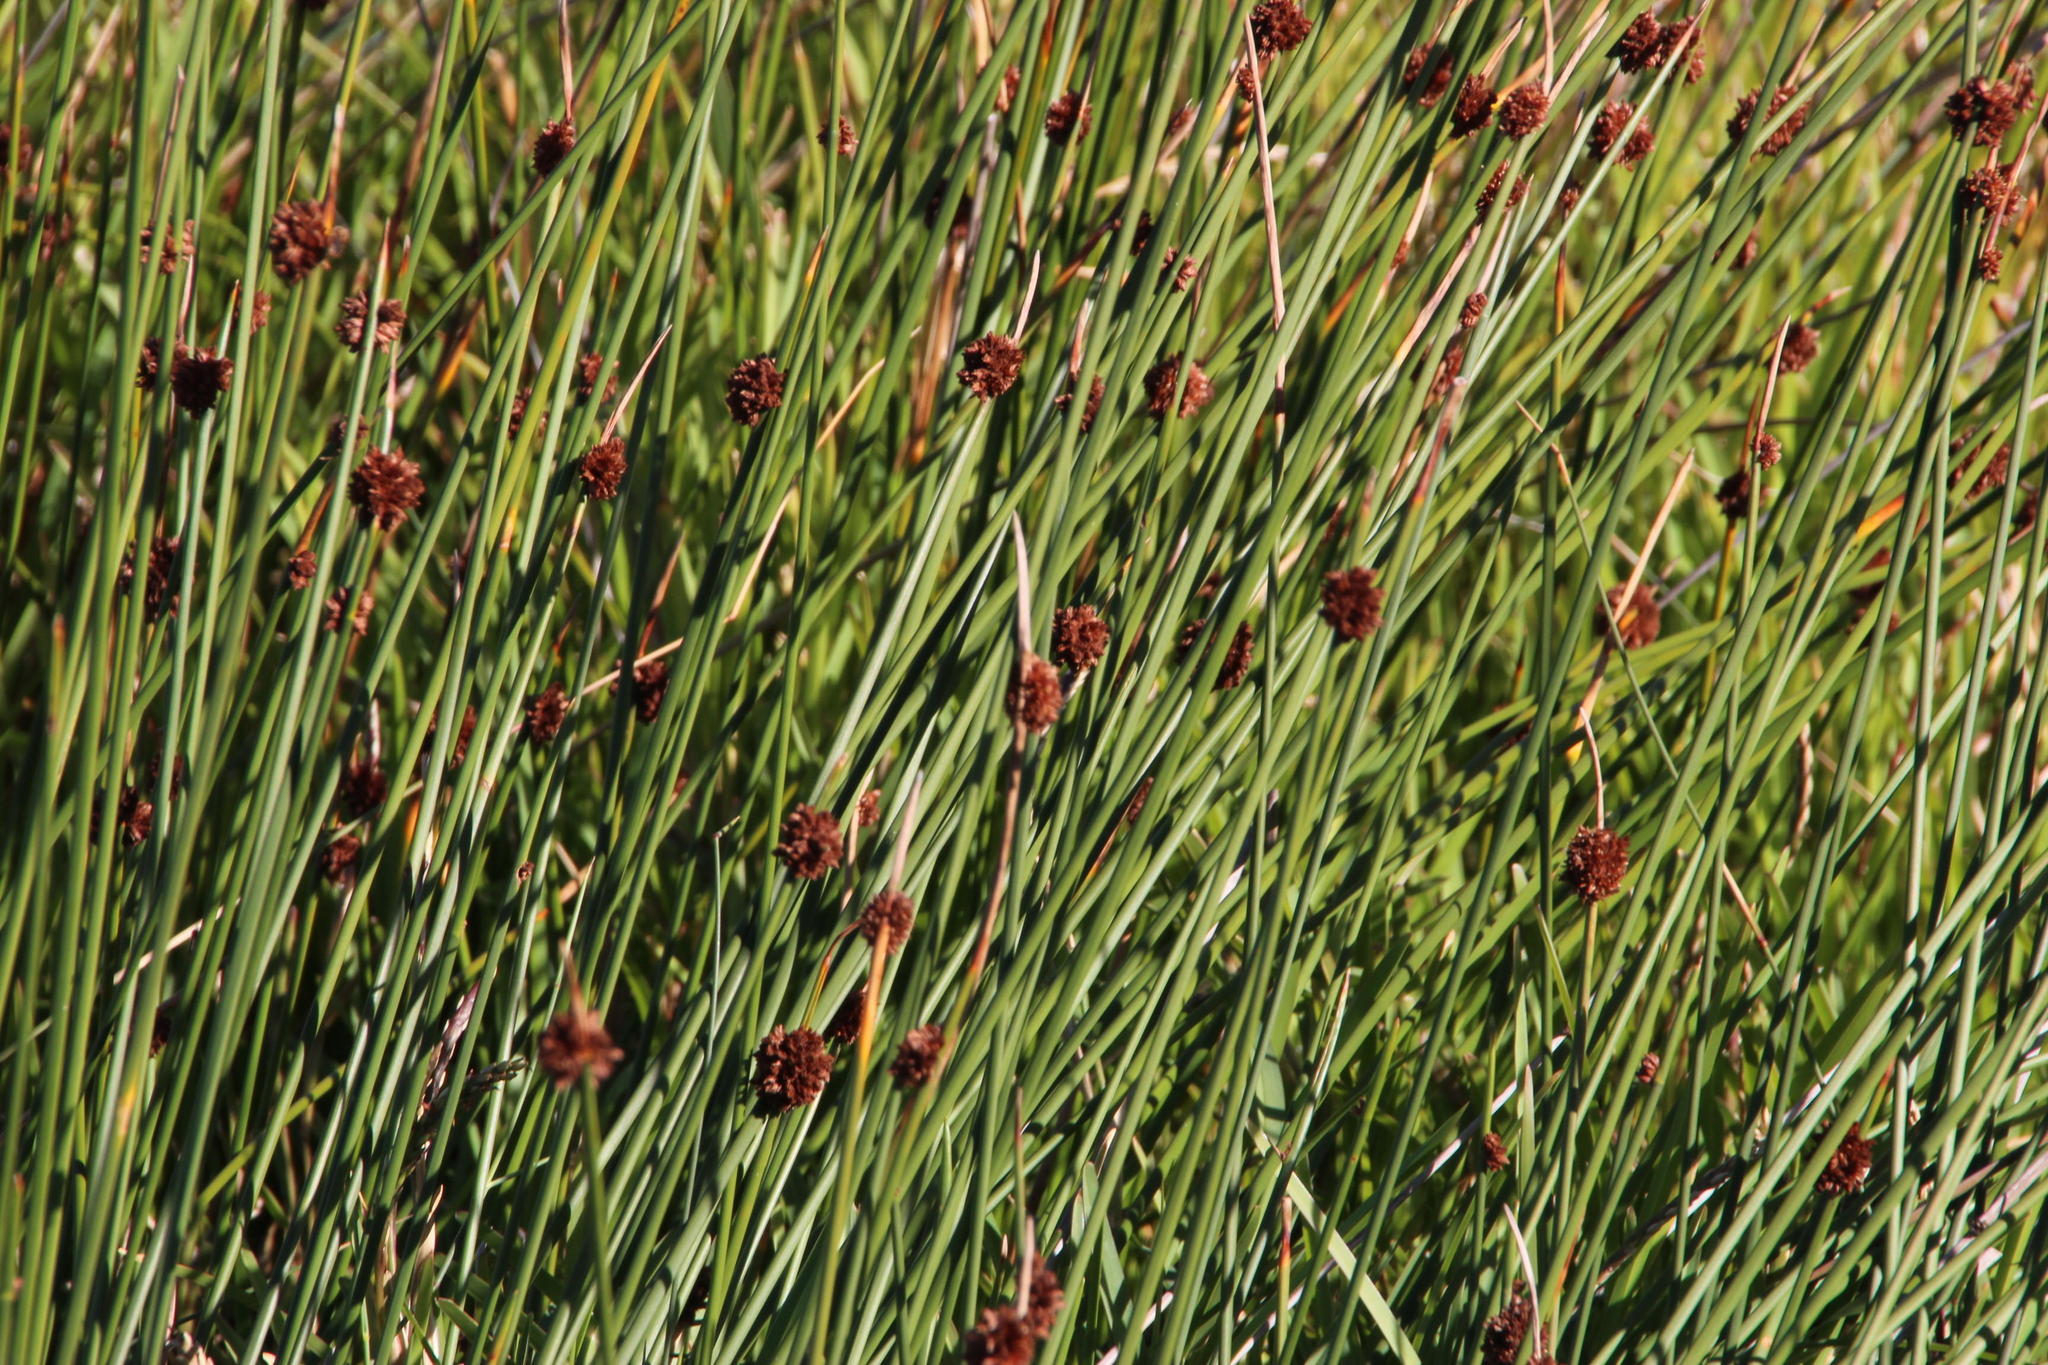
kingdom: Plantae
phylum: Tracheophyta
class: Liliopsida
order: Poales
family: Cyperaceae
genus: Ficinia
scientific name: Ficinia nodosa
